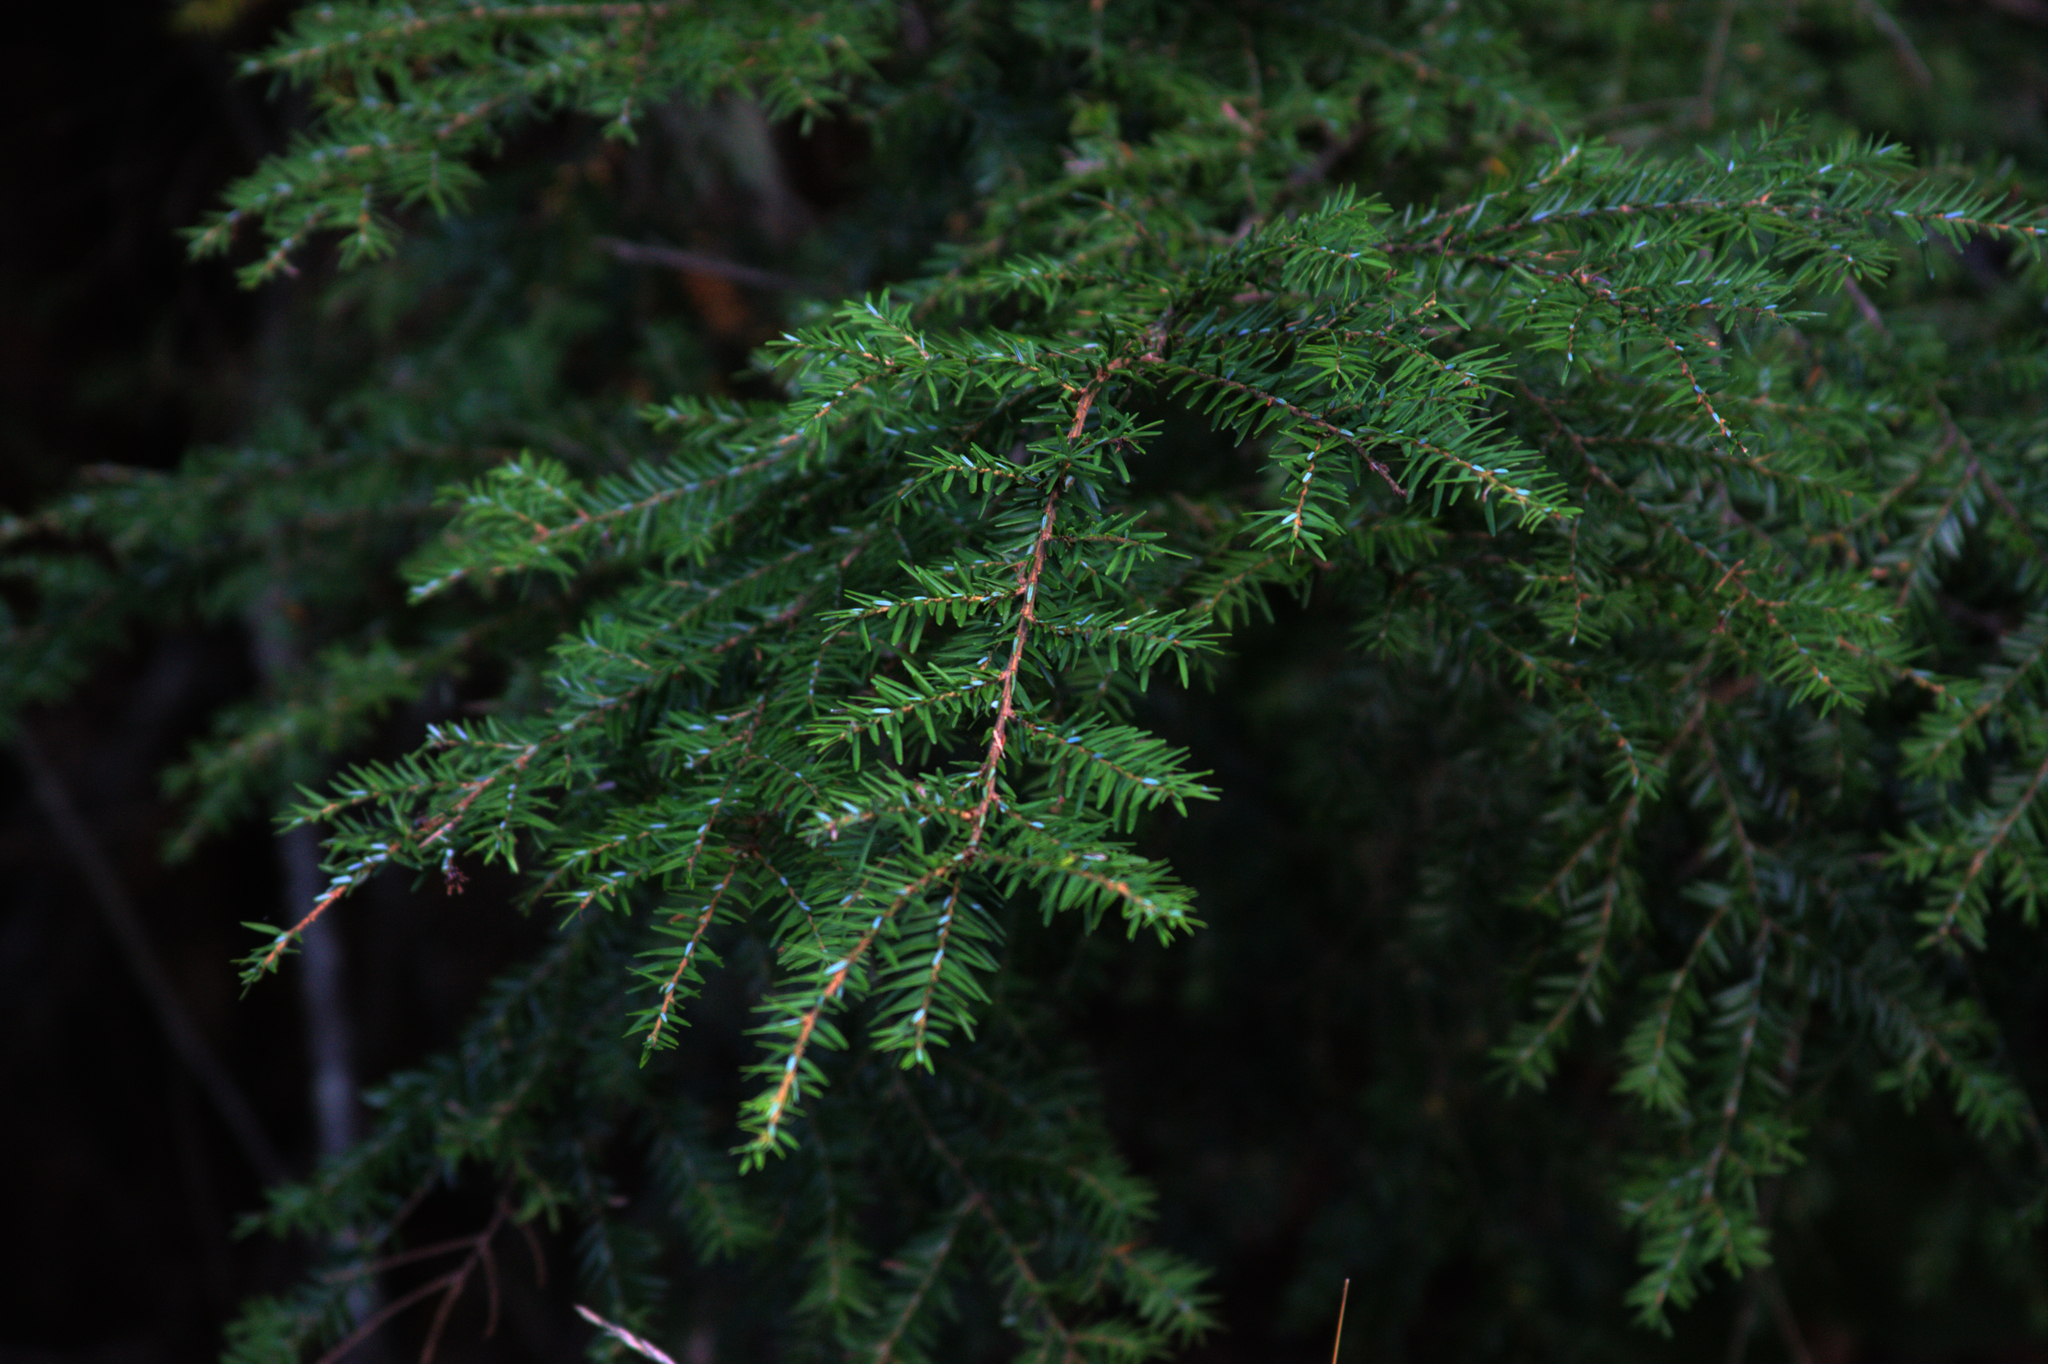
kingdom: Plantae
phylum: Tracheophyta
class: Pinopsida
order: Pinales
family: Pinaceae
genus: Tsuga
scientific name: Tsuga canadensis
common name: Eastern hemlock
